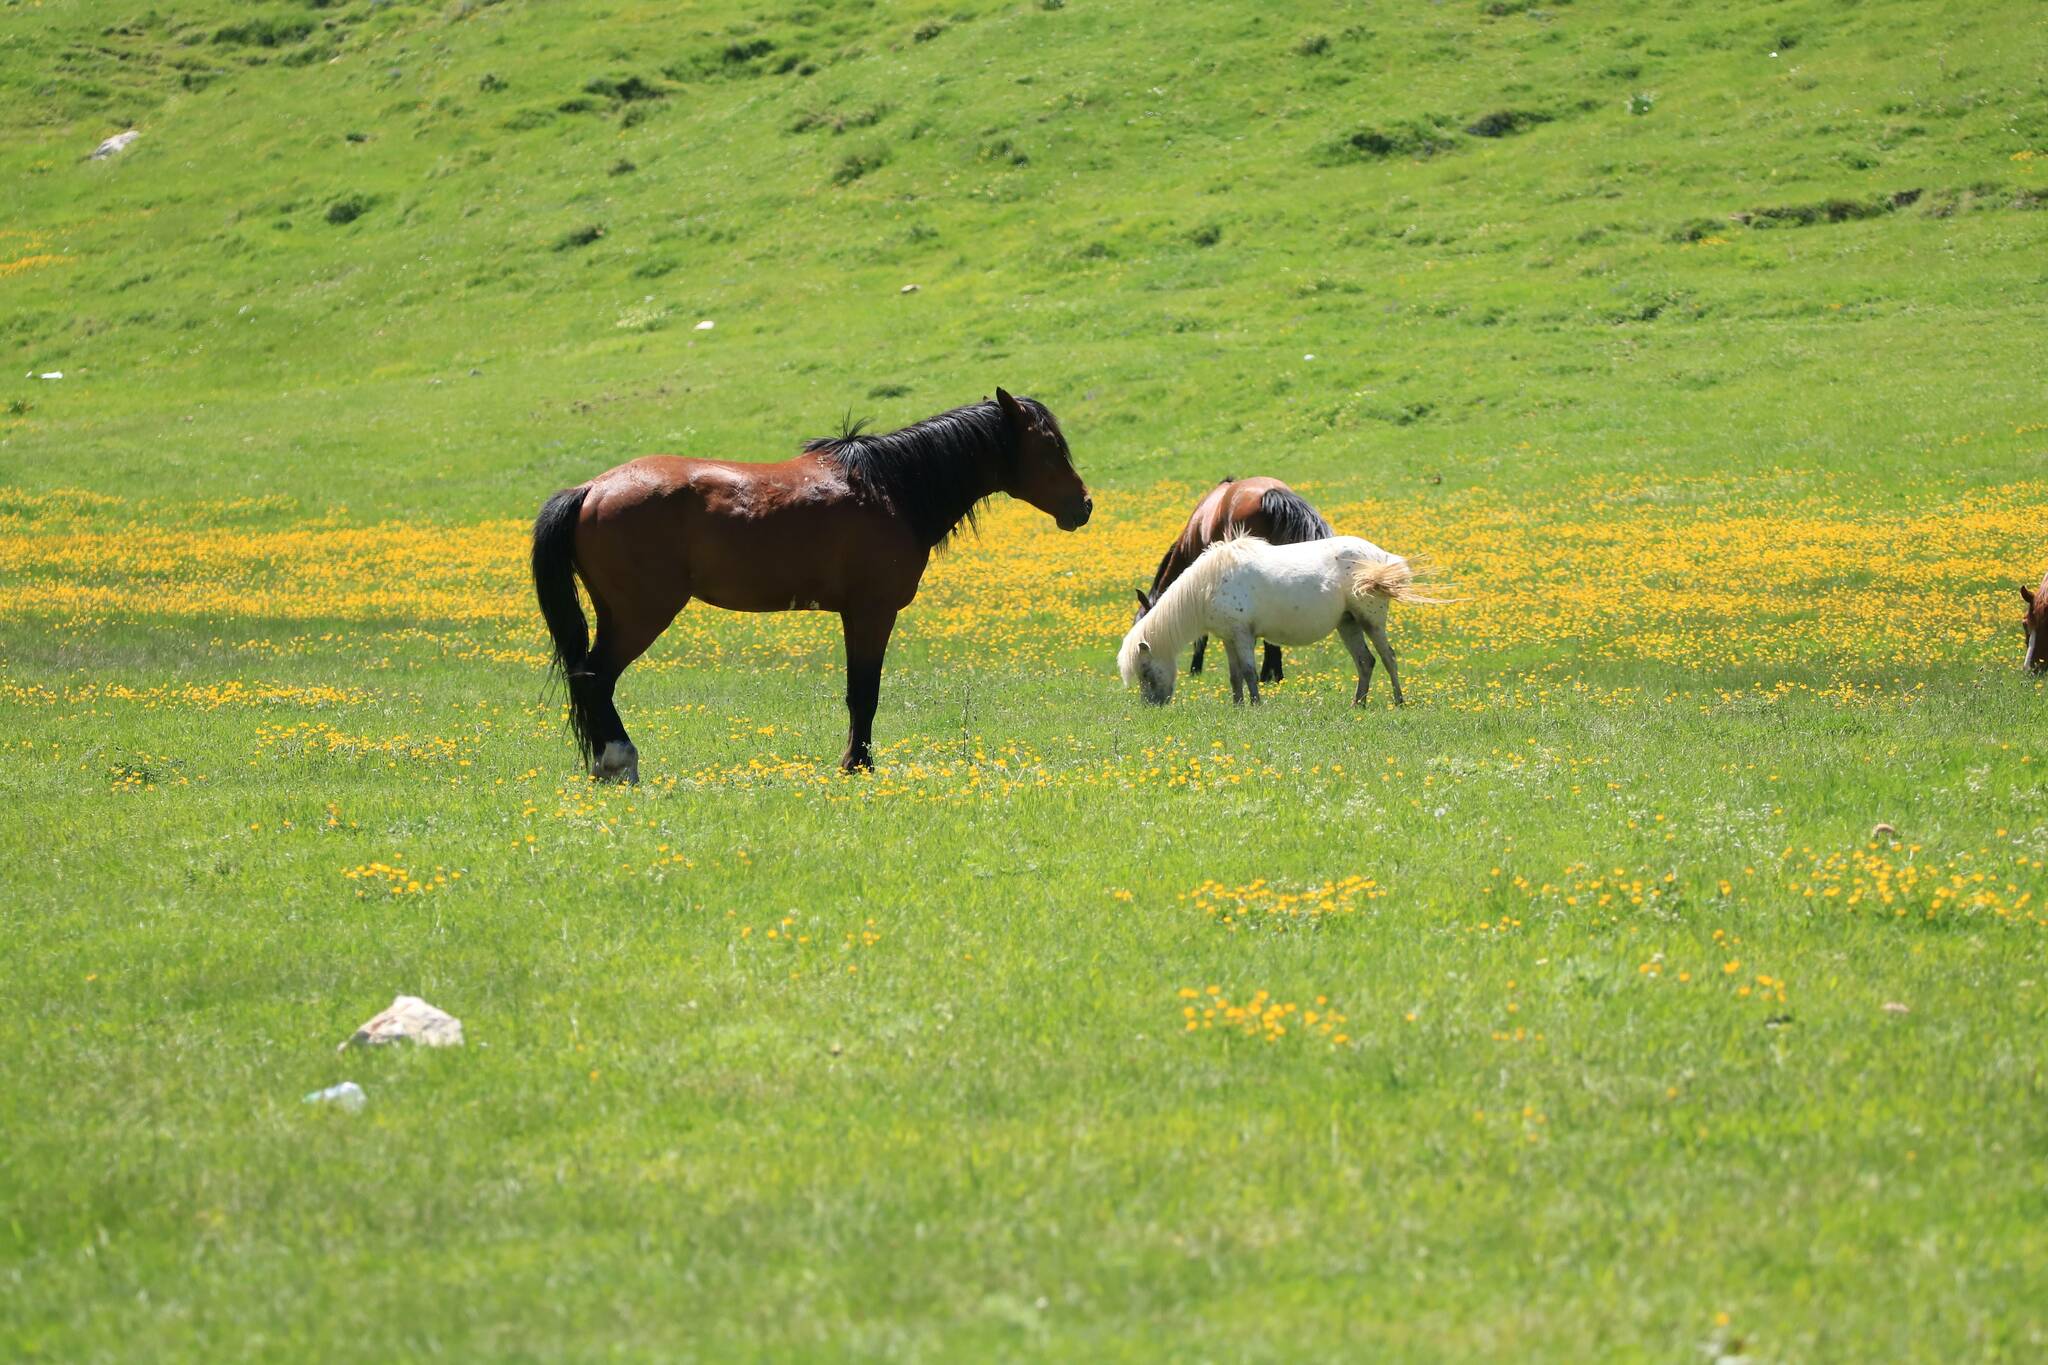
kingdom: Animalia
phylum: Chordata
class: Mammalia
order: Perissodactyla
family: Equidae
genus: Equus
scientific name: Equus caballus
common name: Horse
